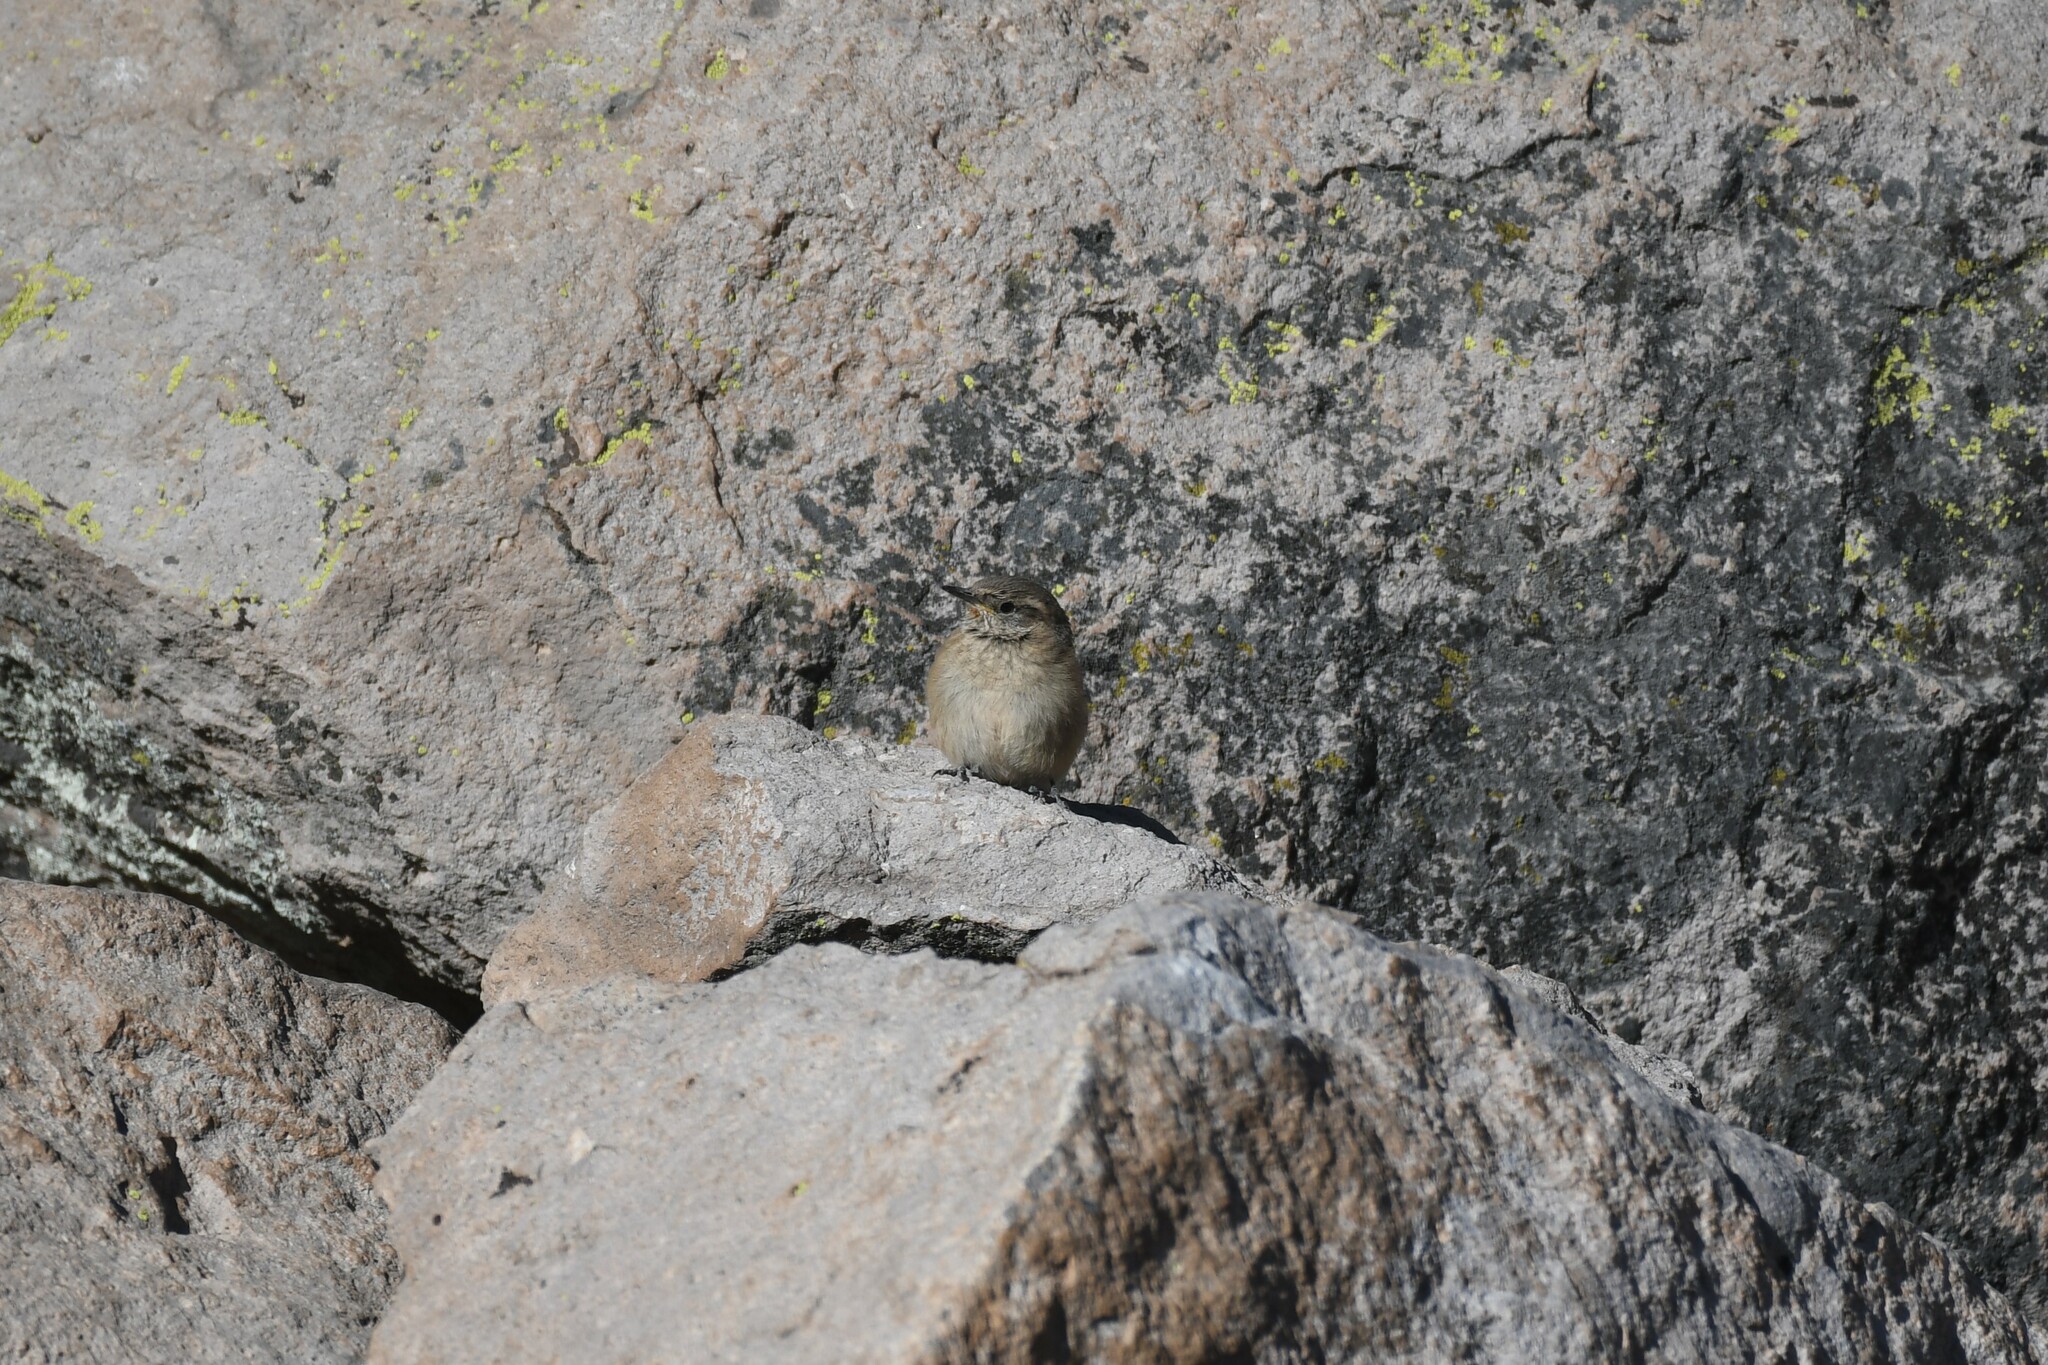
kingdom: Animalia
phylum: Chordata
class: Aves
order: Passeriformes
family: Furnariidae
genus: Asthenes
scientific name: Asthenes modesta
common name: Cordilleran canastero
